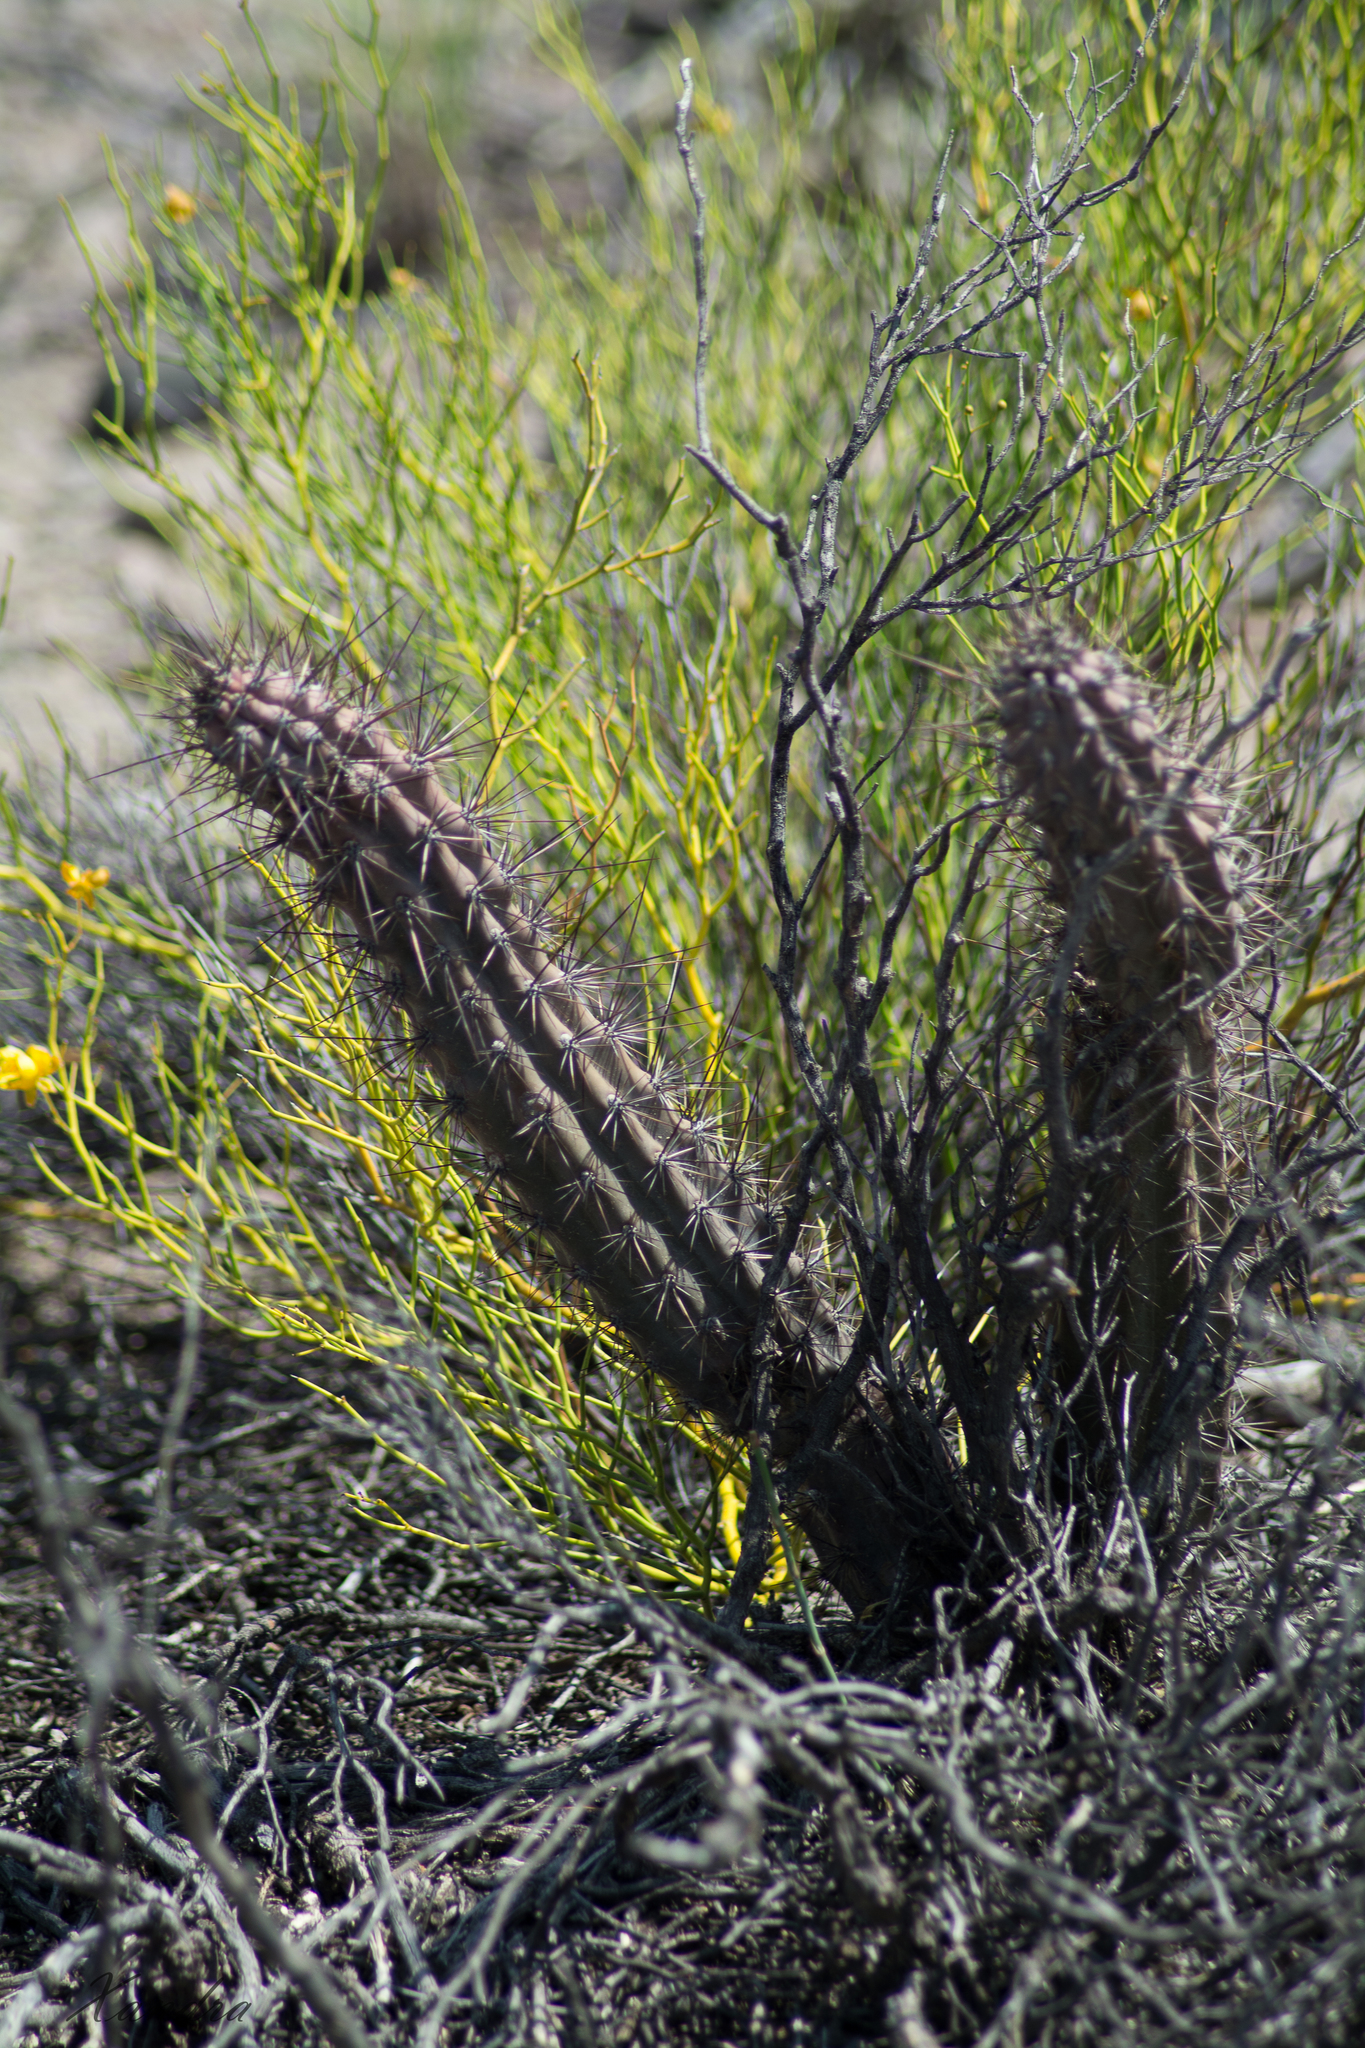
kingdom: Plantae
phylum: Tracheophyta
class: Magnoliopsida
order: Caryophyllales
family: Cactaceae
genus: Cereus
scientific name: Cereus aethiops
